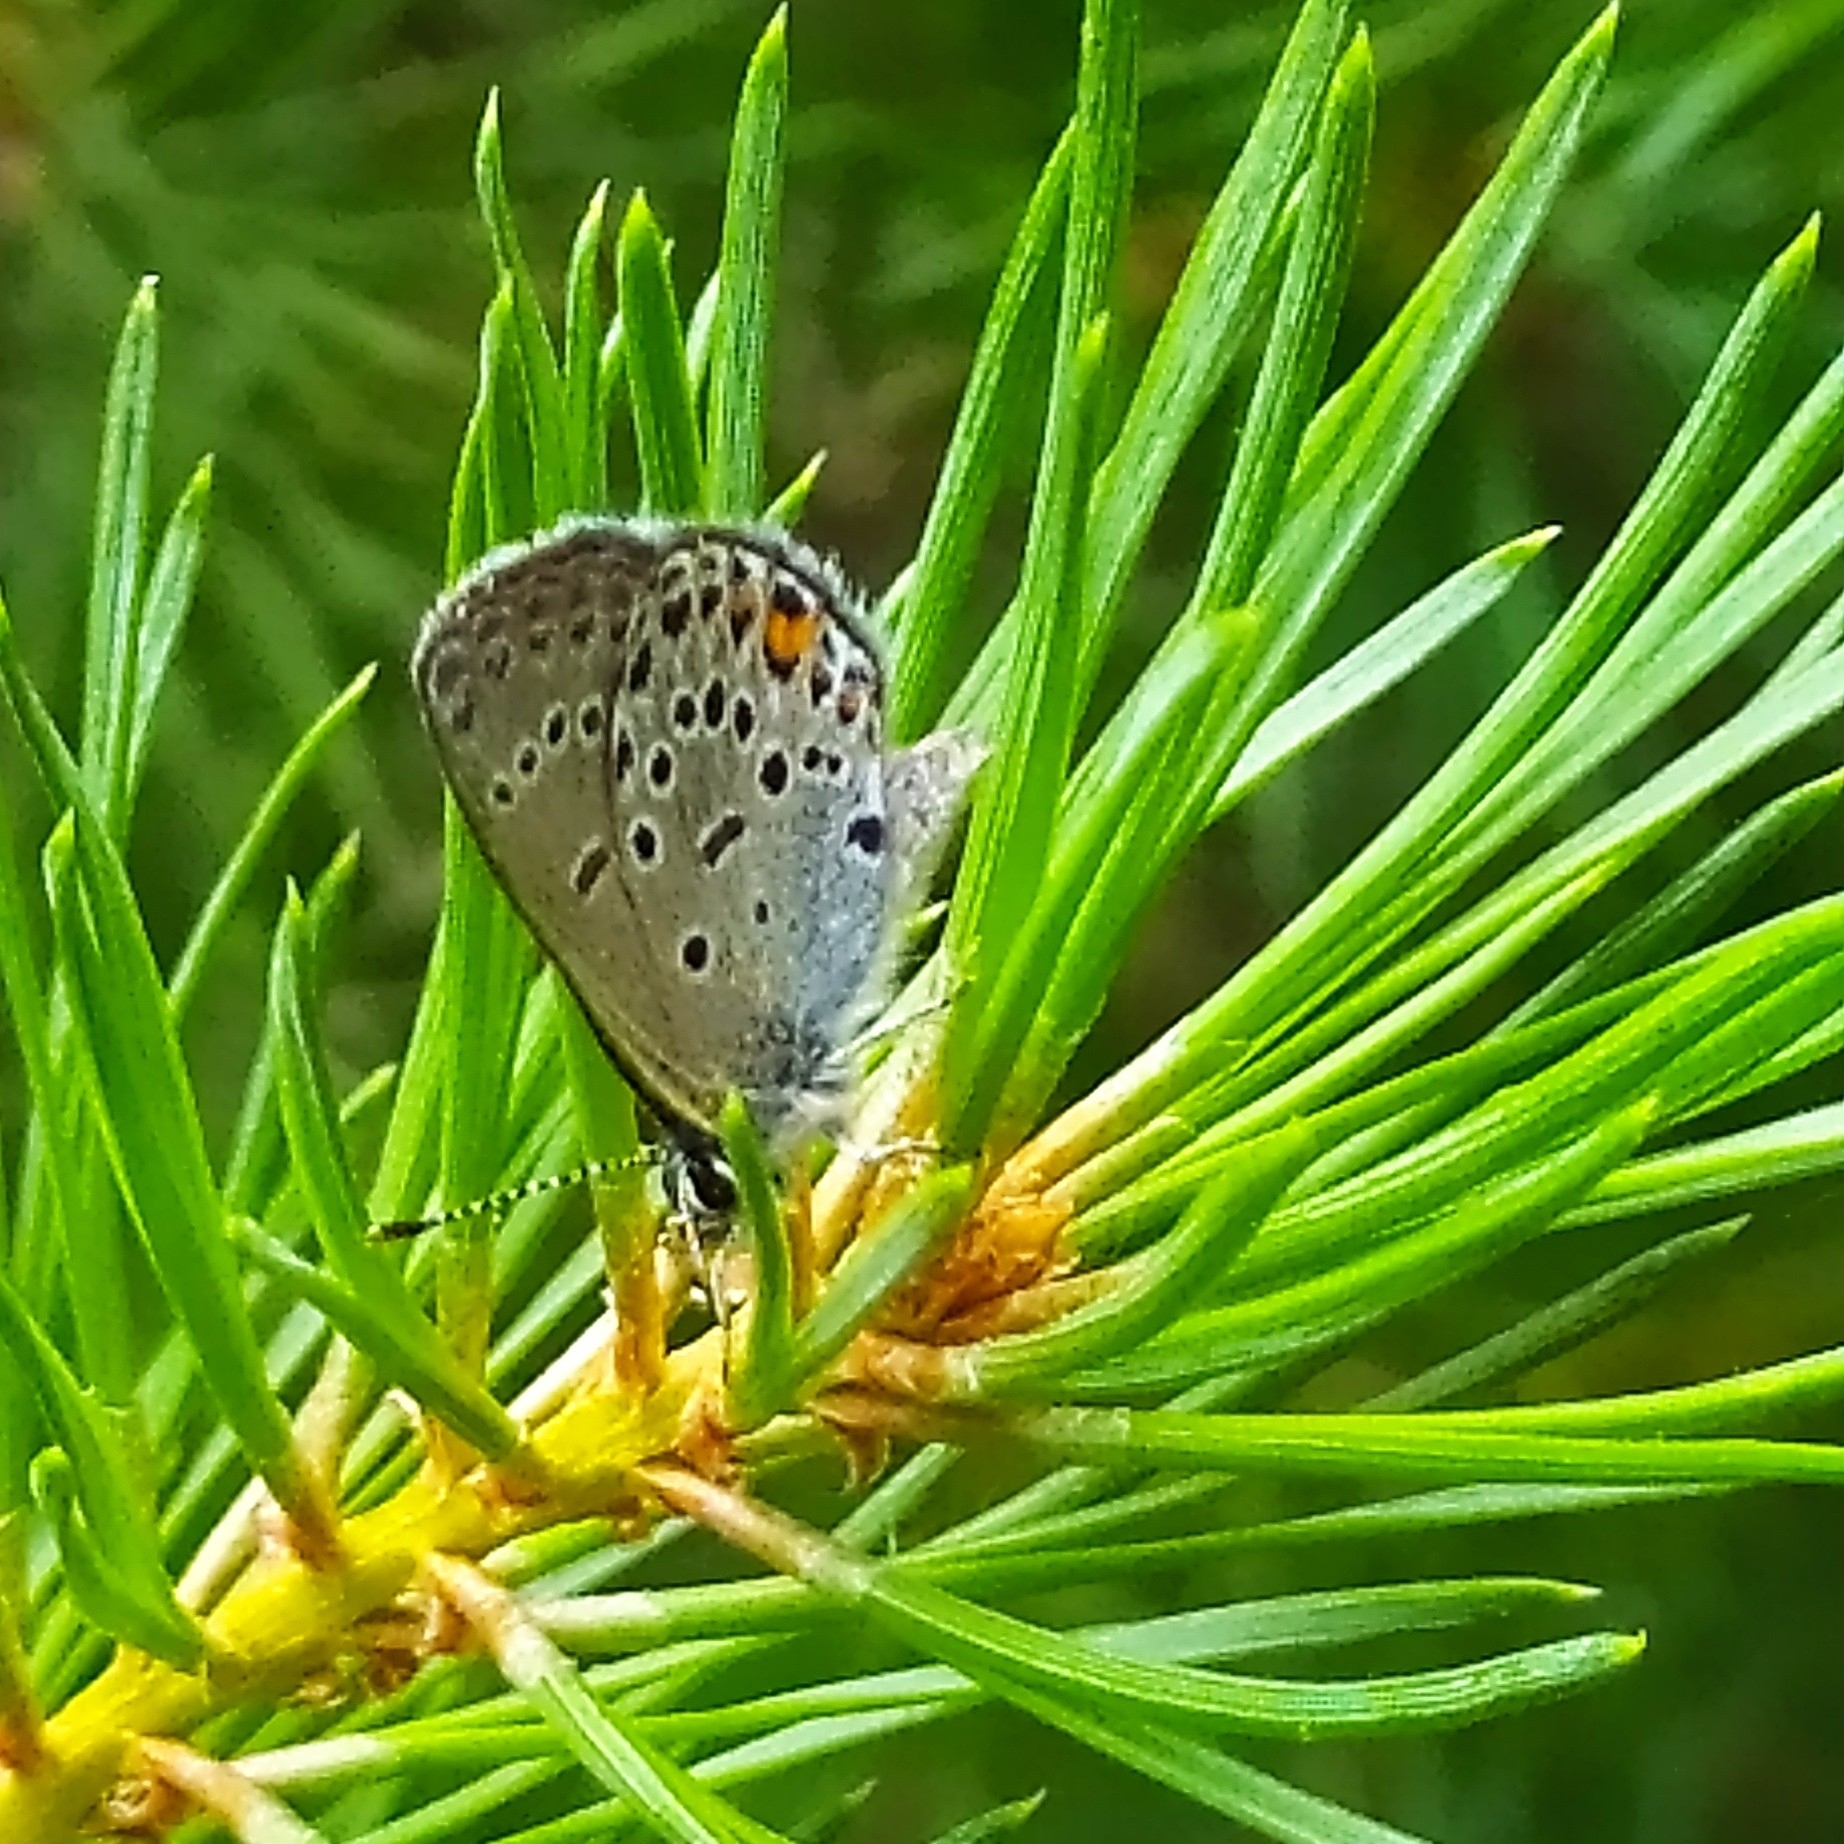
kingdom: Animalia
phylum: Arthropoda
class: Insecta
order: Lepidoptera
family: Lycaenidae
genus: Vacciniina
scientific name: Vacciniina optilete
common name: Cranberry blue
